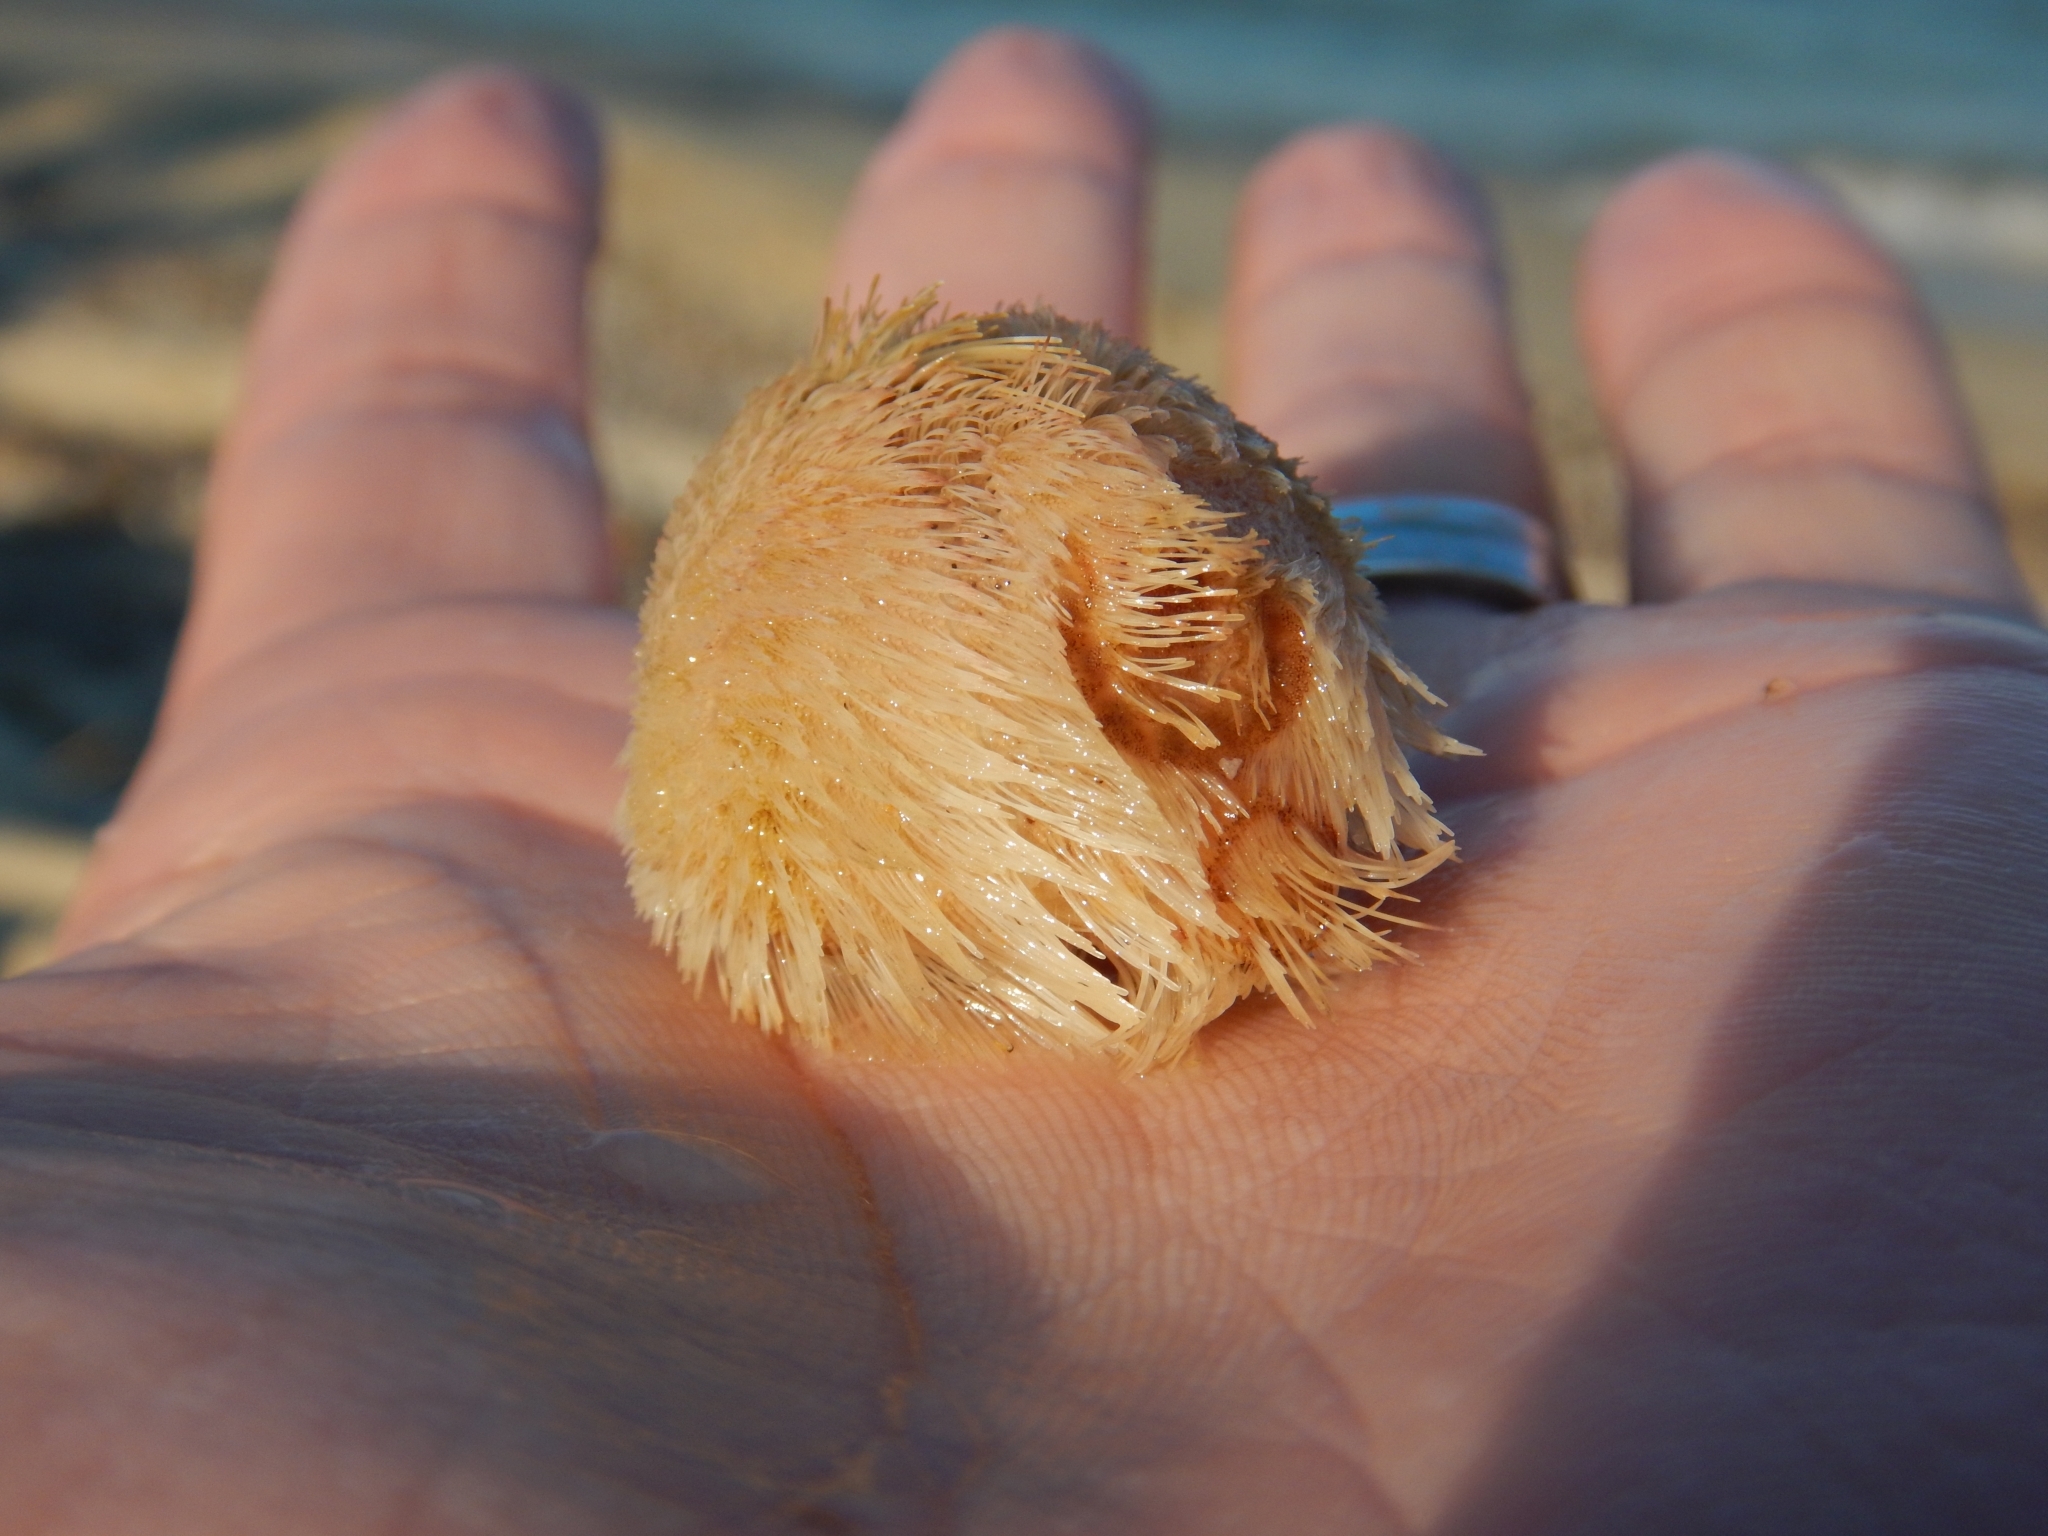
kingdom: Animalia
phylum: Echinodermata
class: Echinoidea
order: Spatangoida
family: Loveniidae
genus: Echinocardium
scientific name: Echinocardium
